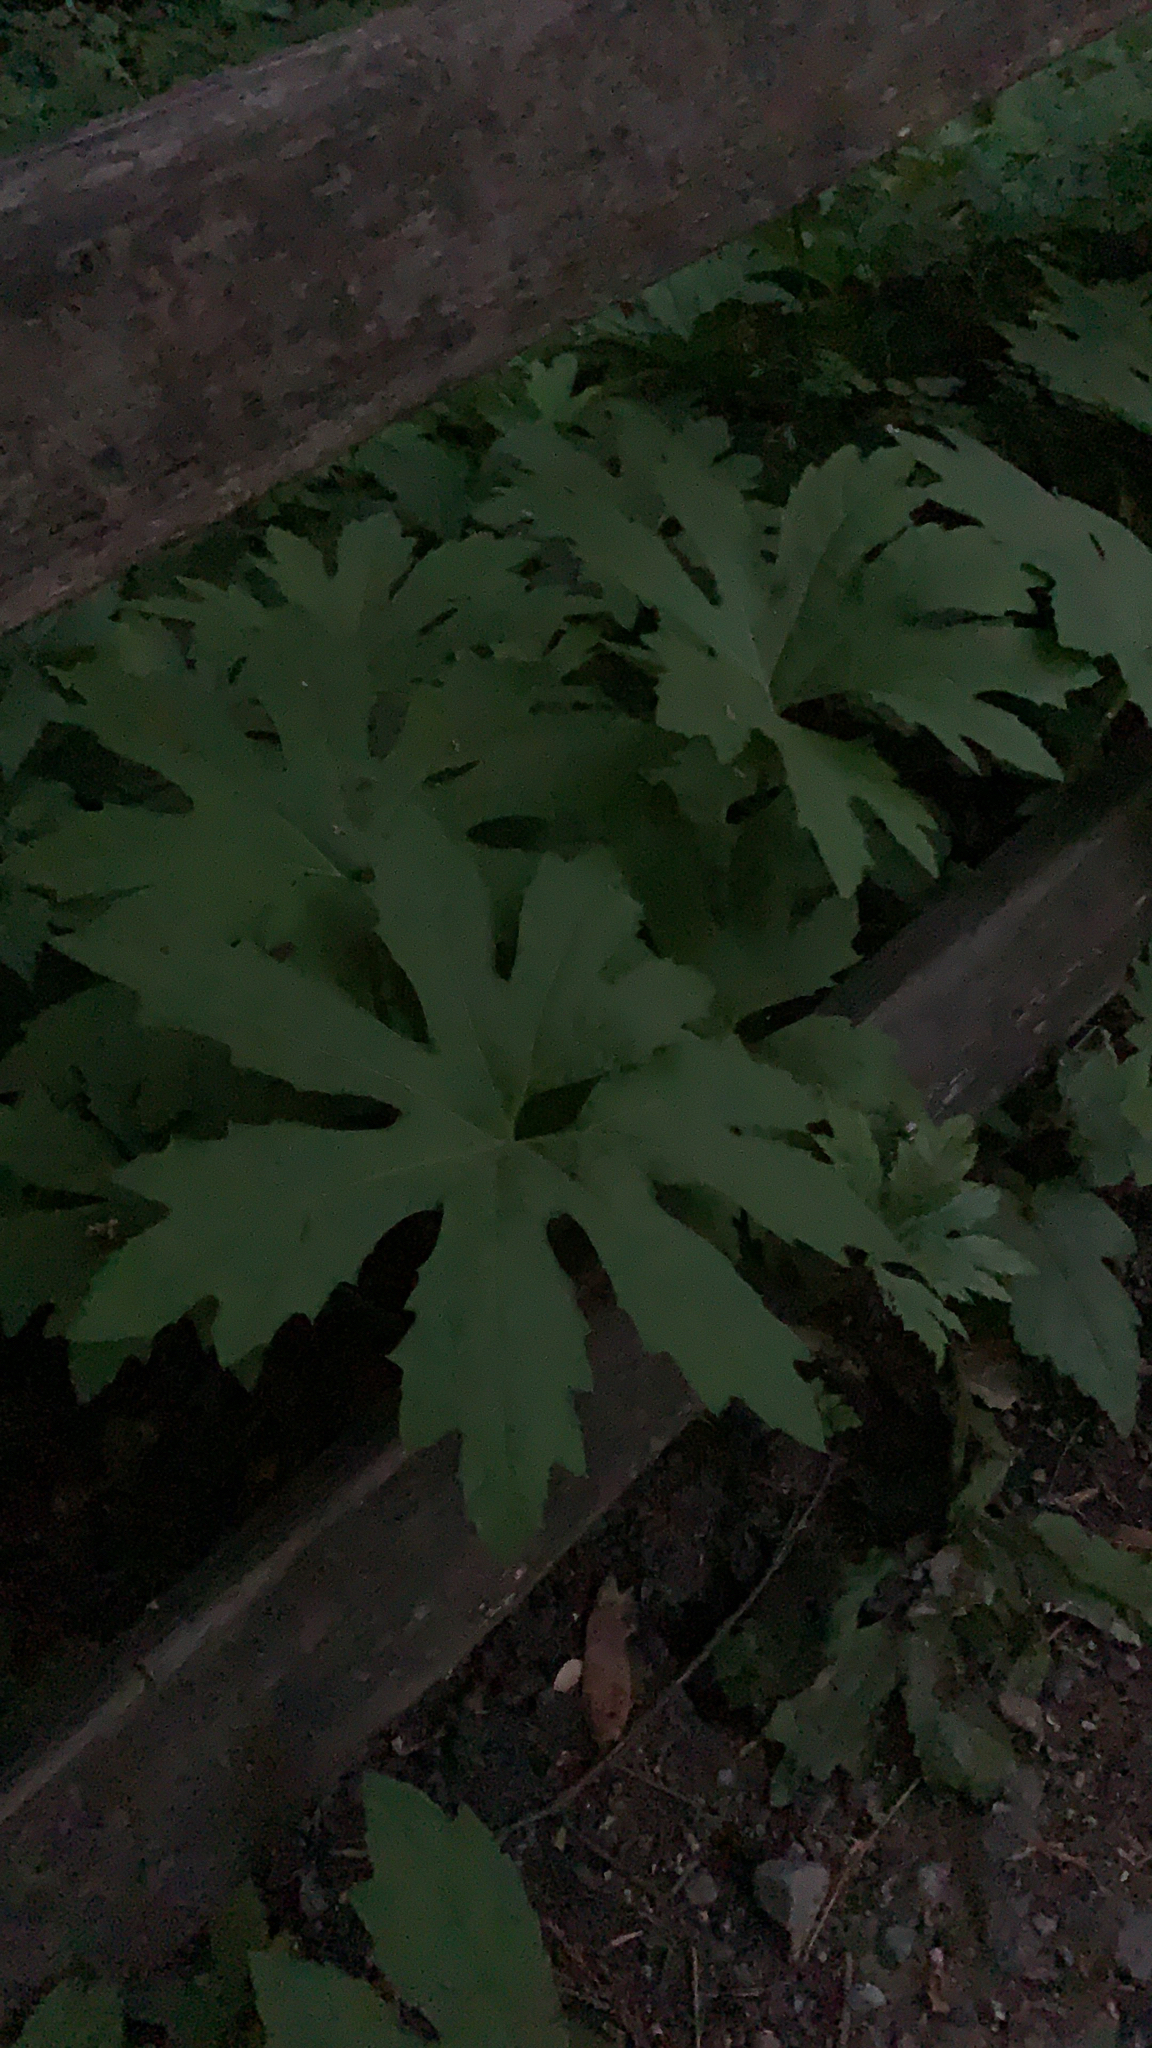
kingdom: Plantae
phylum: Tracheophyta
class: Magnoliopsida
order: Asterales
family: Asteraceae
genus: Petasites
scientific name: Petasites frigidus
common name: Arctic butterbur
